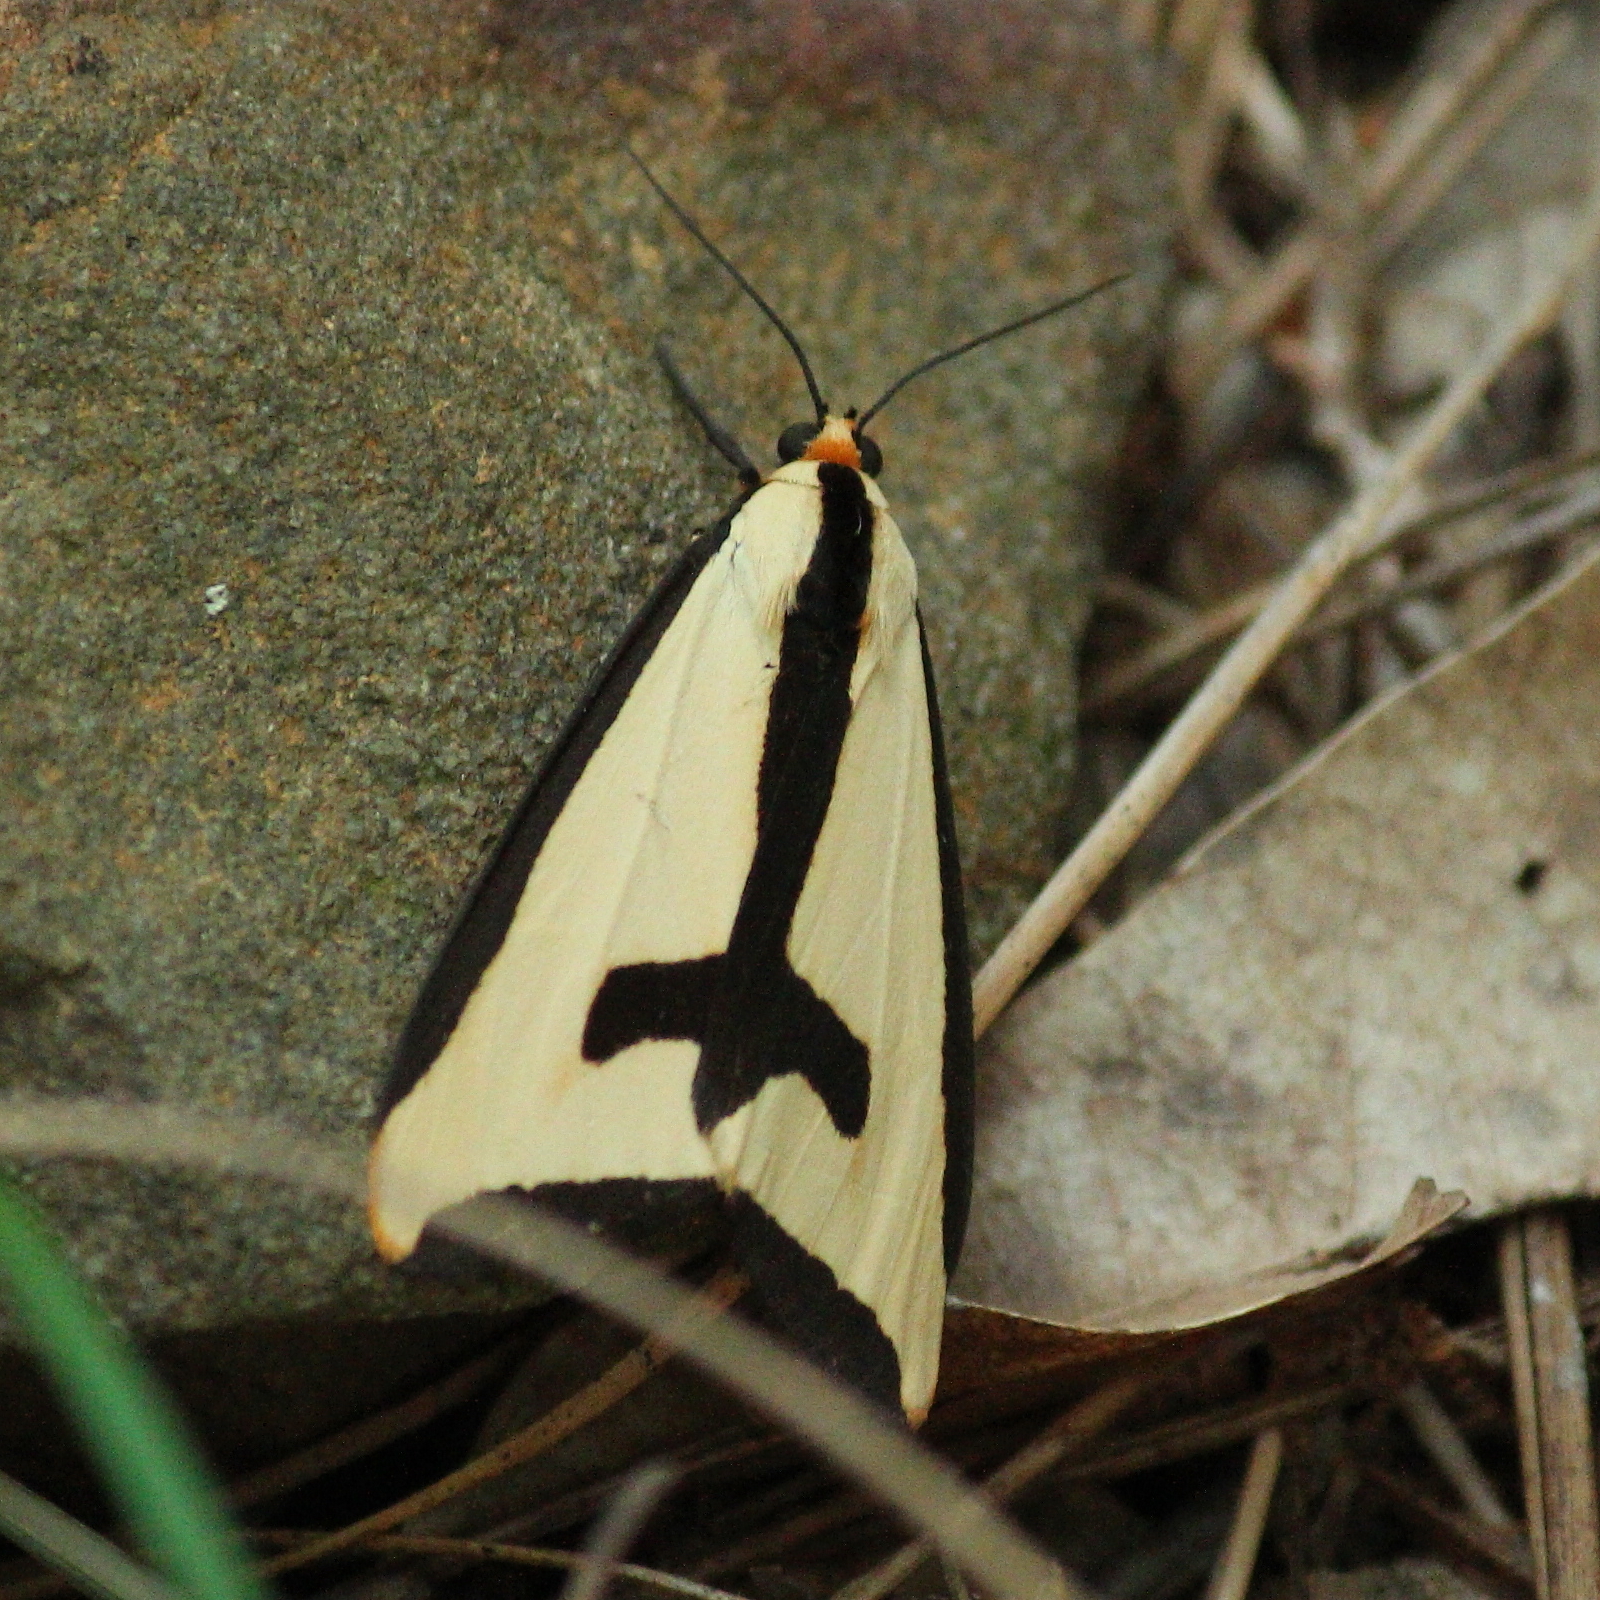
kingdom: Animalia
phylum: Arthropoda
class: Insecta
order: Lepidoptera
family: Erebidae
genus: Haploa
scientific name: Haploa clymene
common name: Clymene moth
